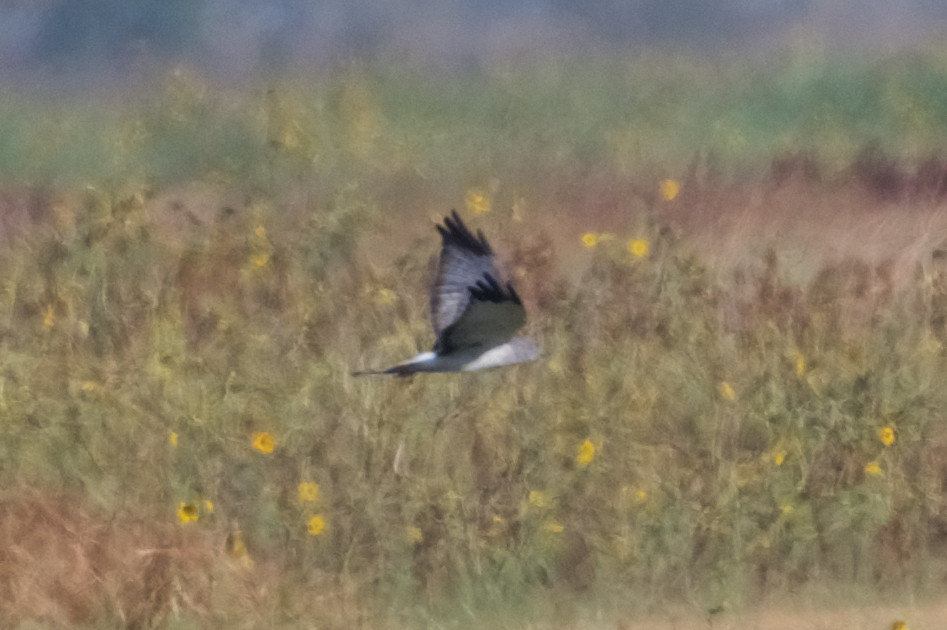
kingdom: Animalia
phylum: Chordata
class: Aves
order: Accipitriformes
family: Accipitridae
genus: Circus
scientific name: Circus cyaneus
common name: Hen harrier
